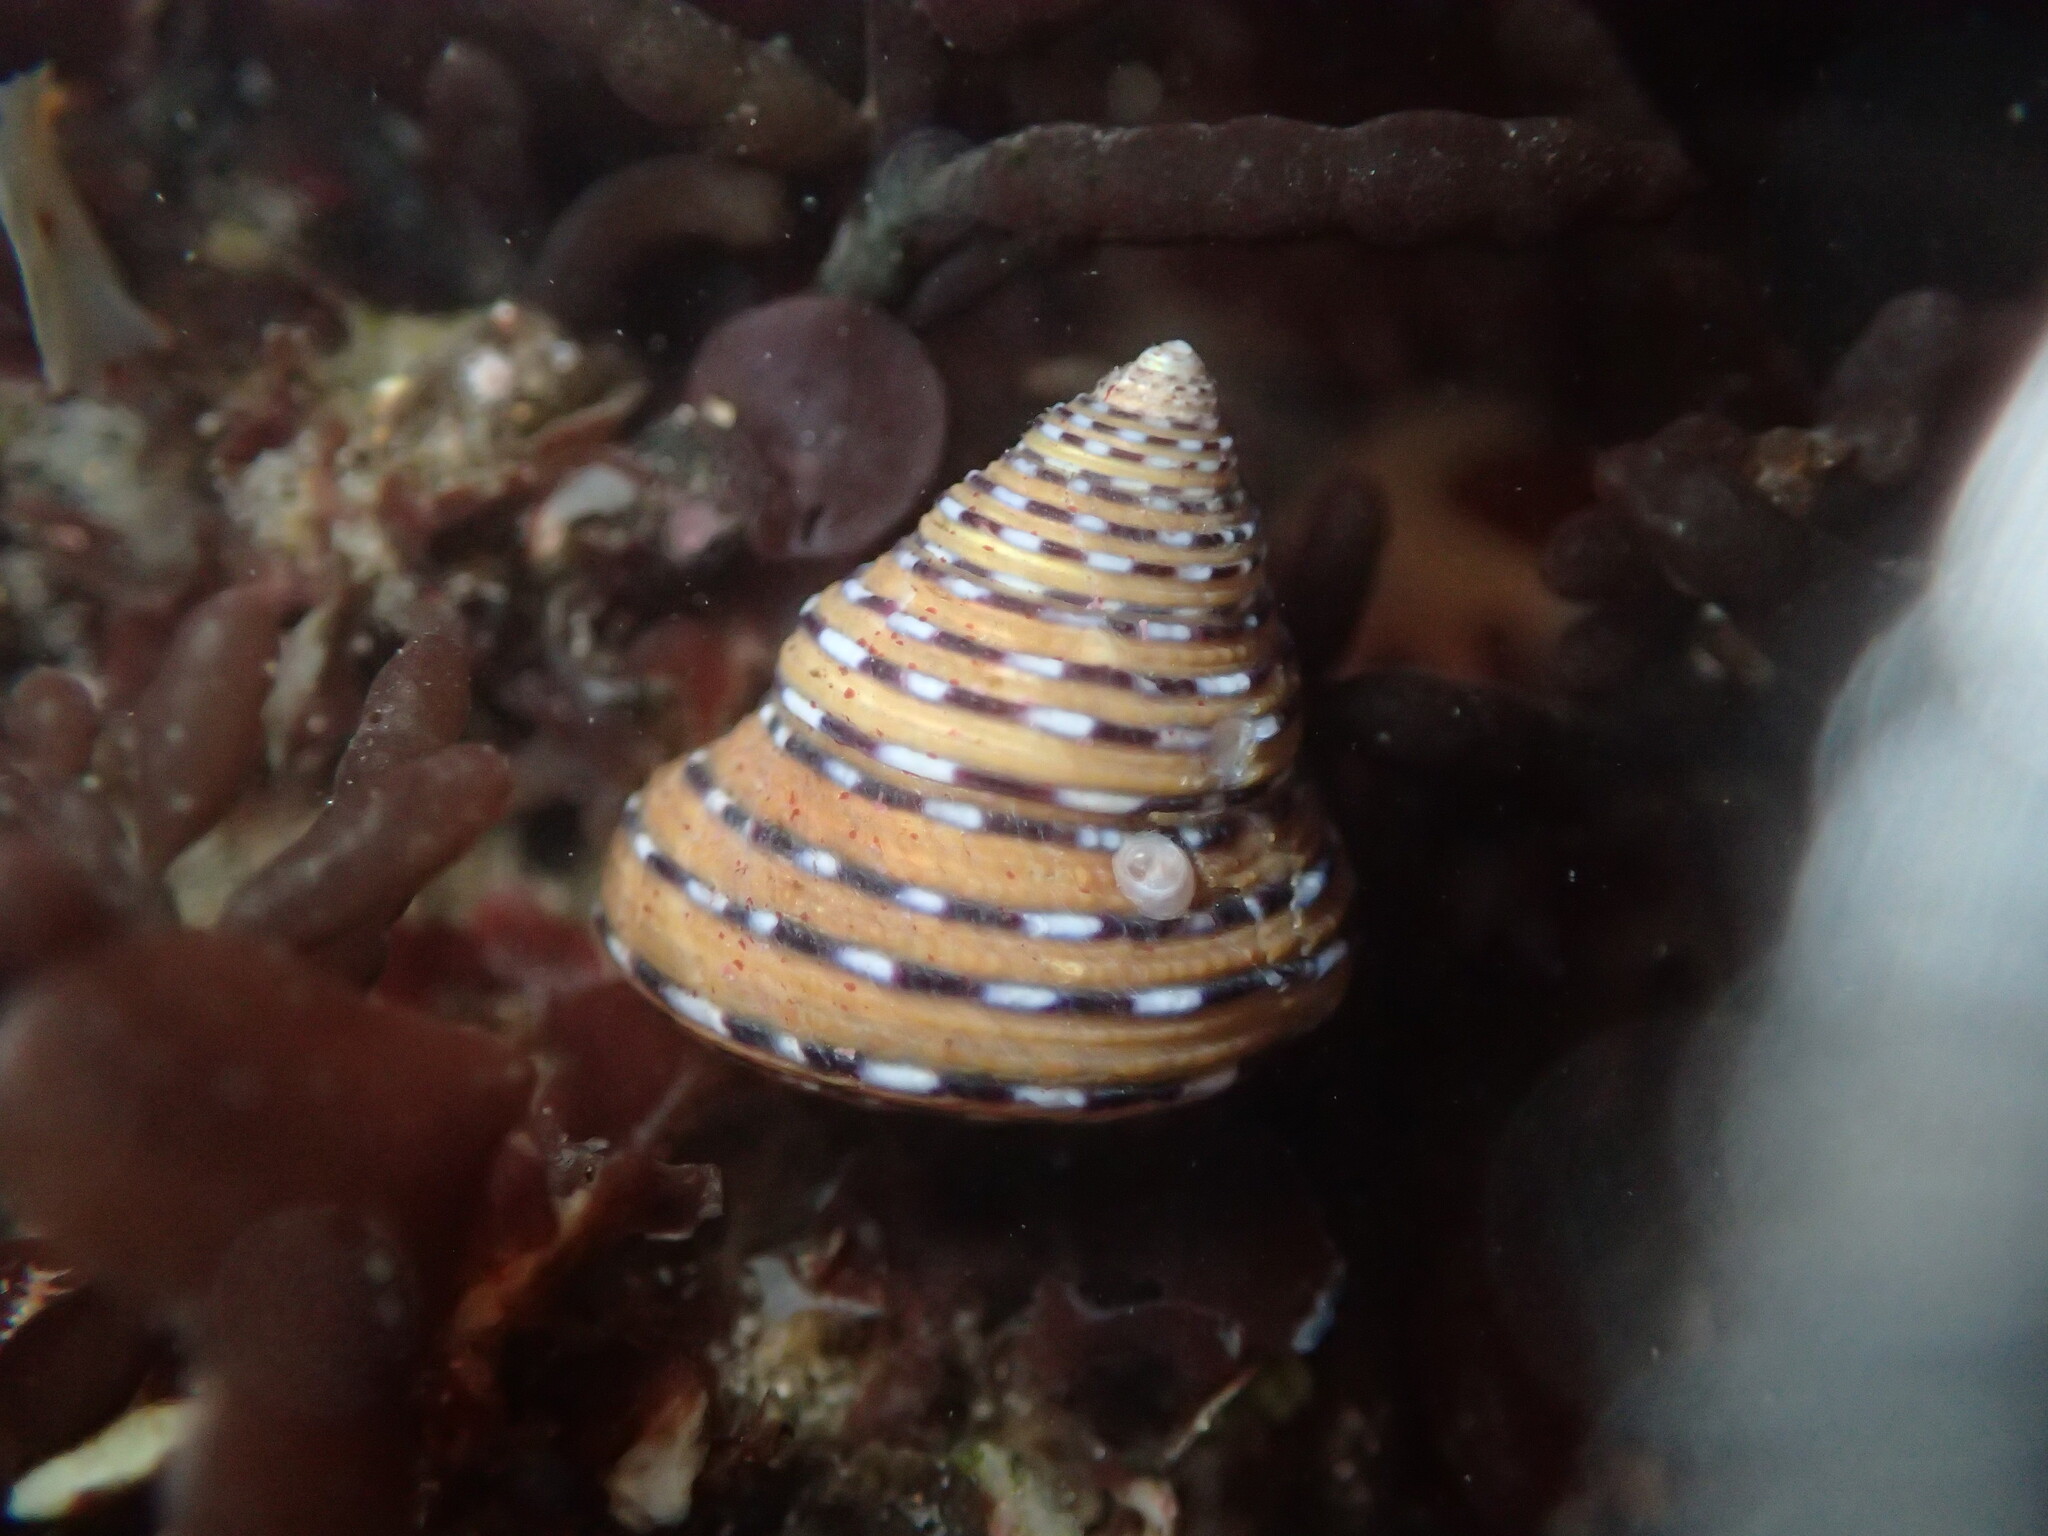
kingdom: Animalia
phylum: Mollusca
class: Gastropoda
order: Trochida
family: Calliostomatidae
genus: Calliostoma
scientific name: Calliostoma tricolor
